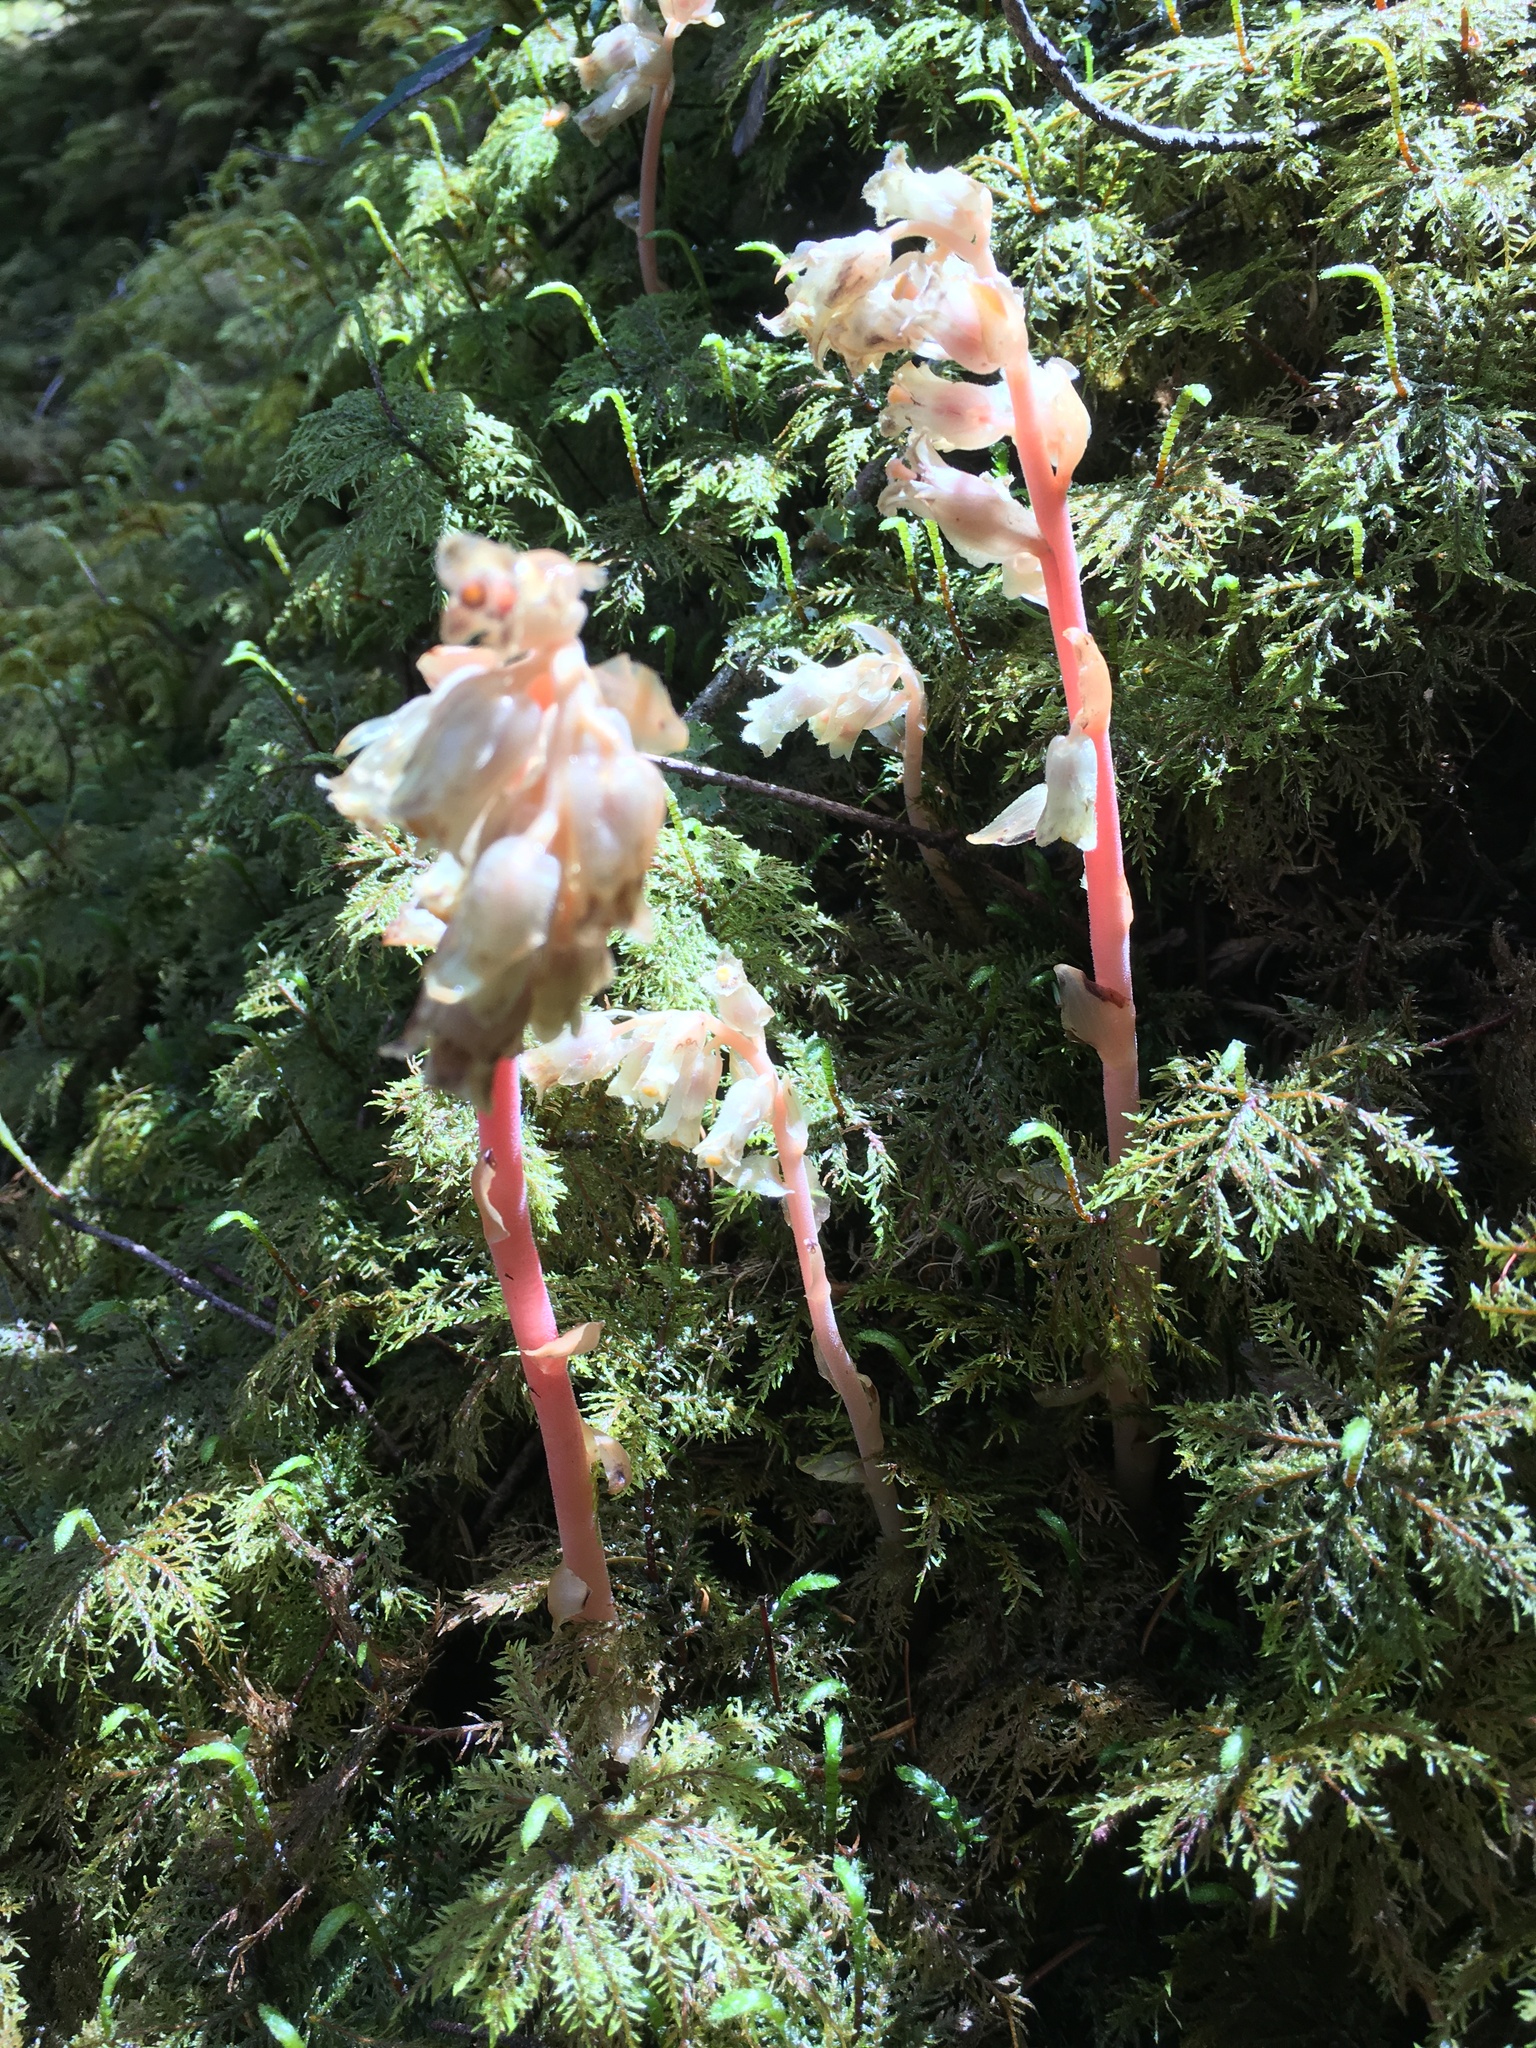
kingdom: Plantae
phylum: Tracheophyta
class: Magnoliopsida
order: Ericales
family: Ericaceae
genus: Hypopitys
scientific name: Hypopitys monotropa
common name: Yellow bird's-nest
